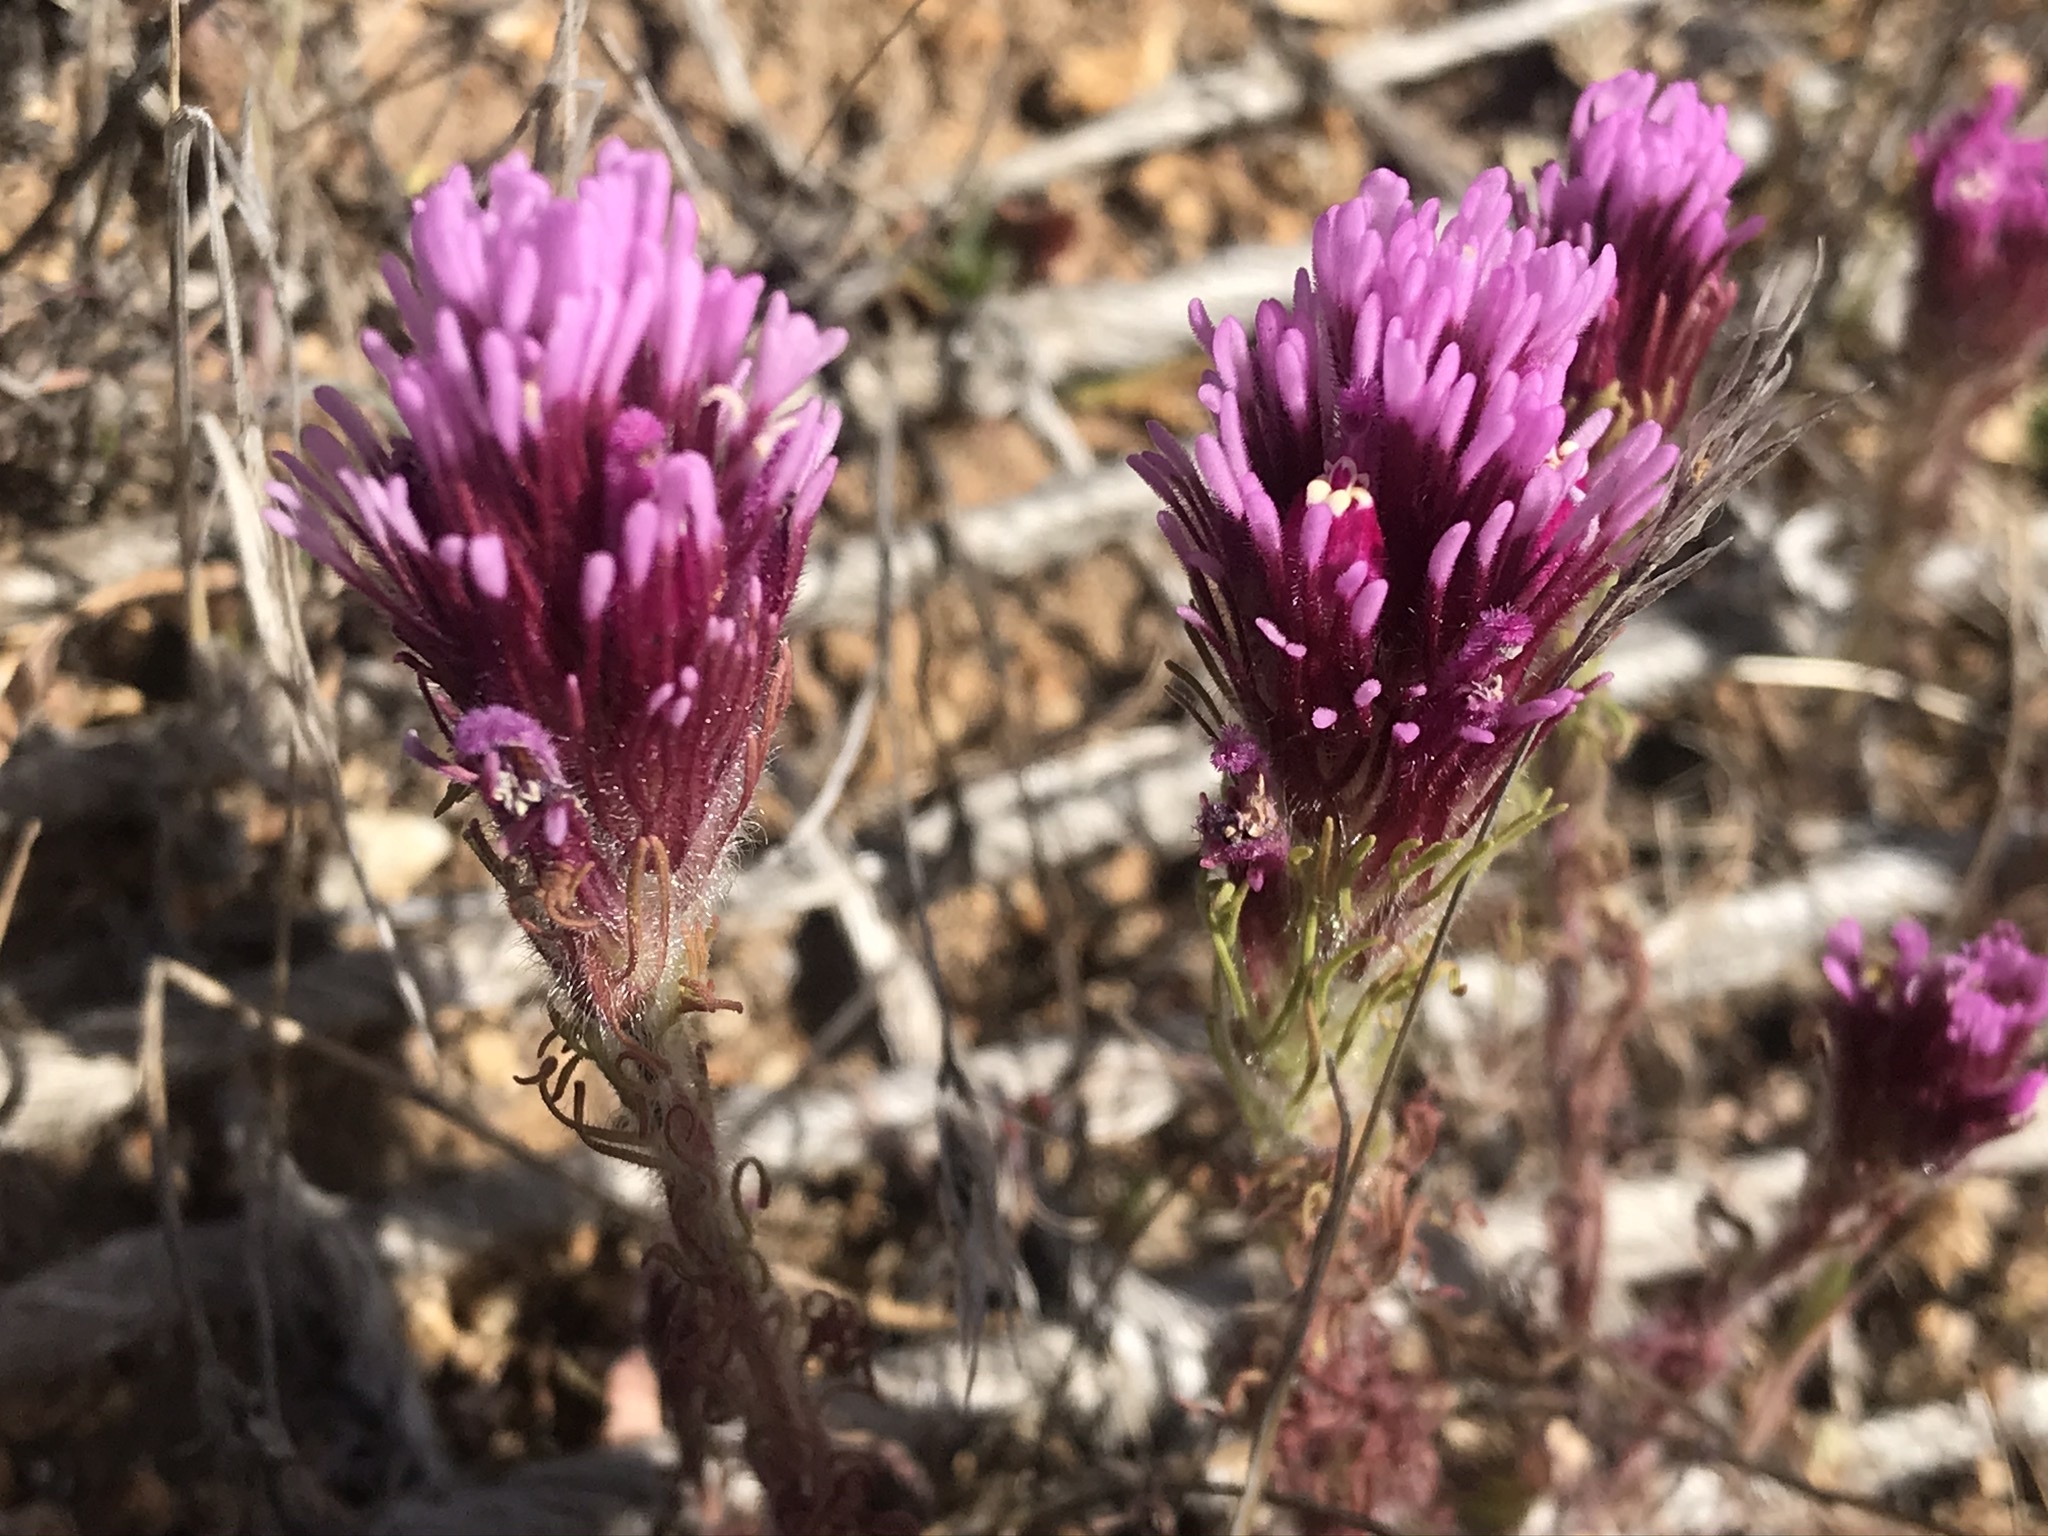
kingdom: Plantae
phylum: Tracheophyta
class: Magnoliopsida
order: Lamiales
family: Orobanchaceae
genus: Castilleja
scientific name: Castilleja exserta
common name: Purple owl-clover
